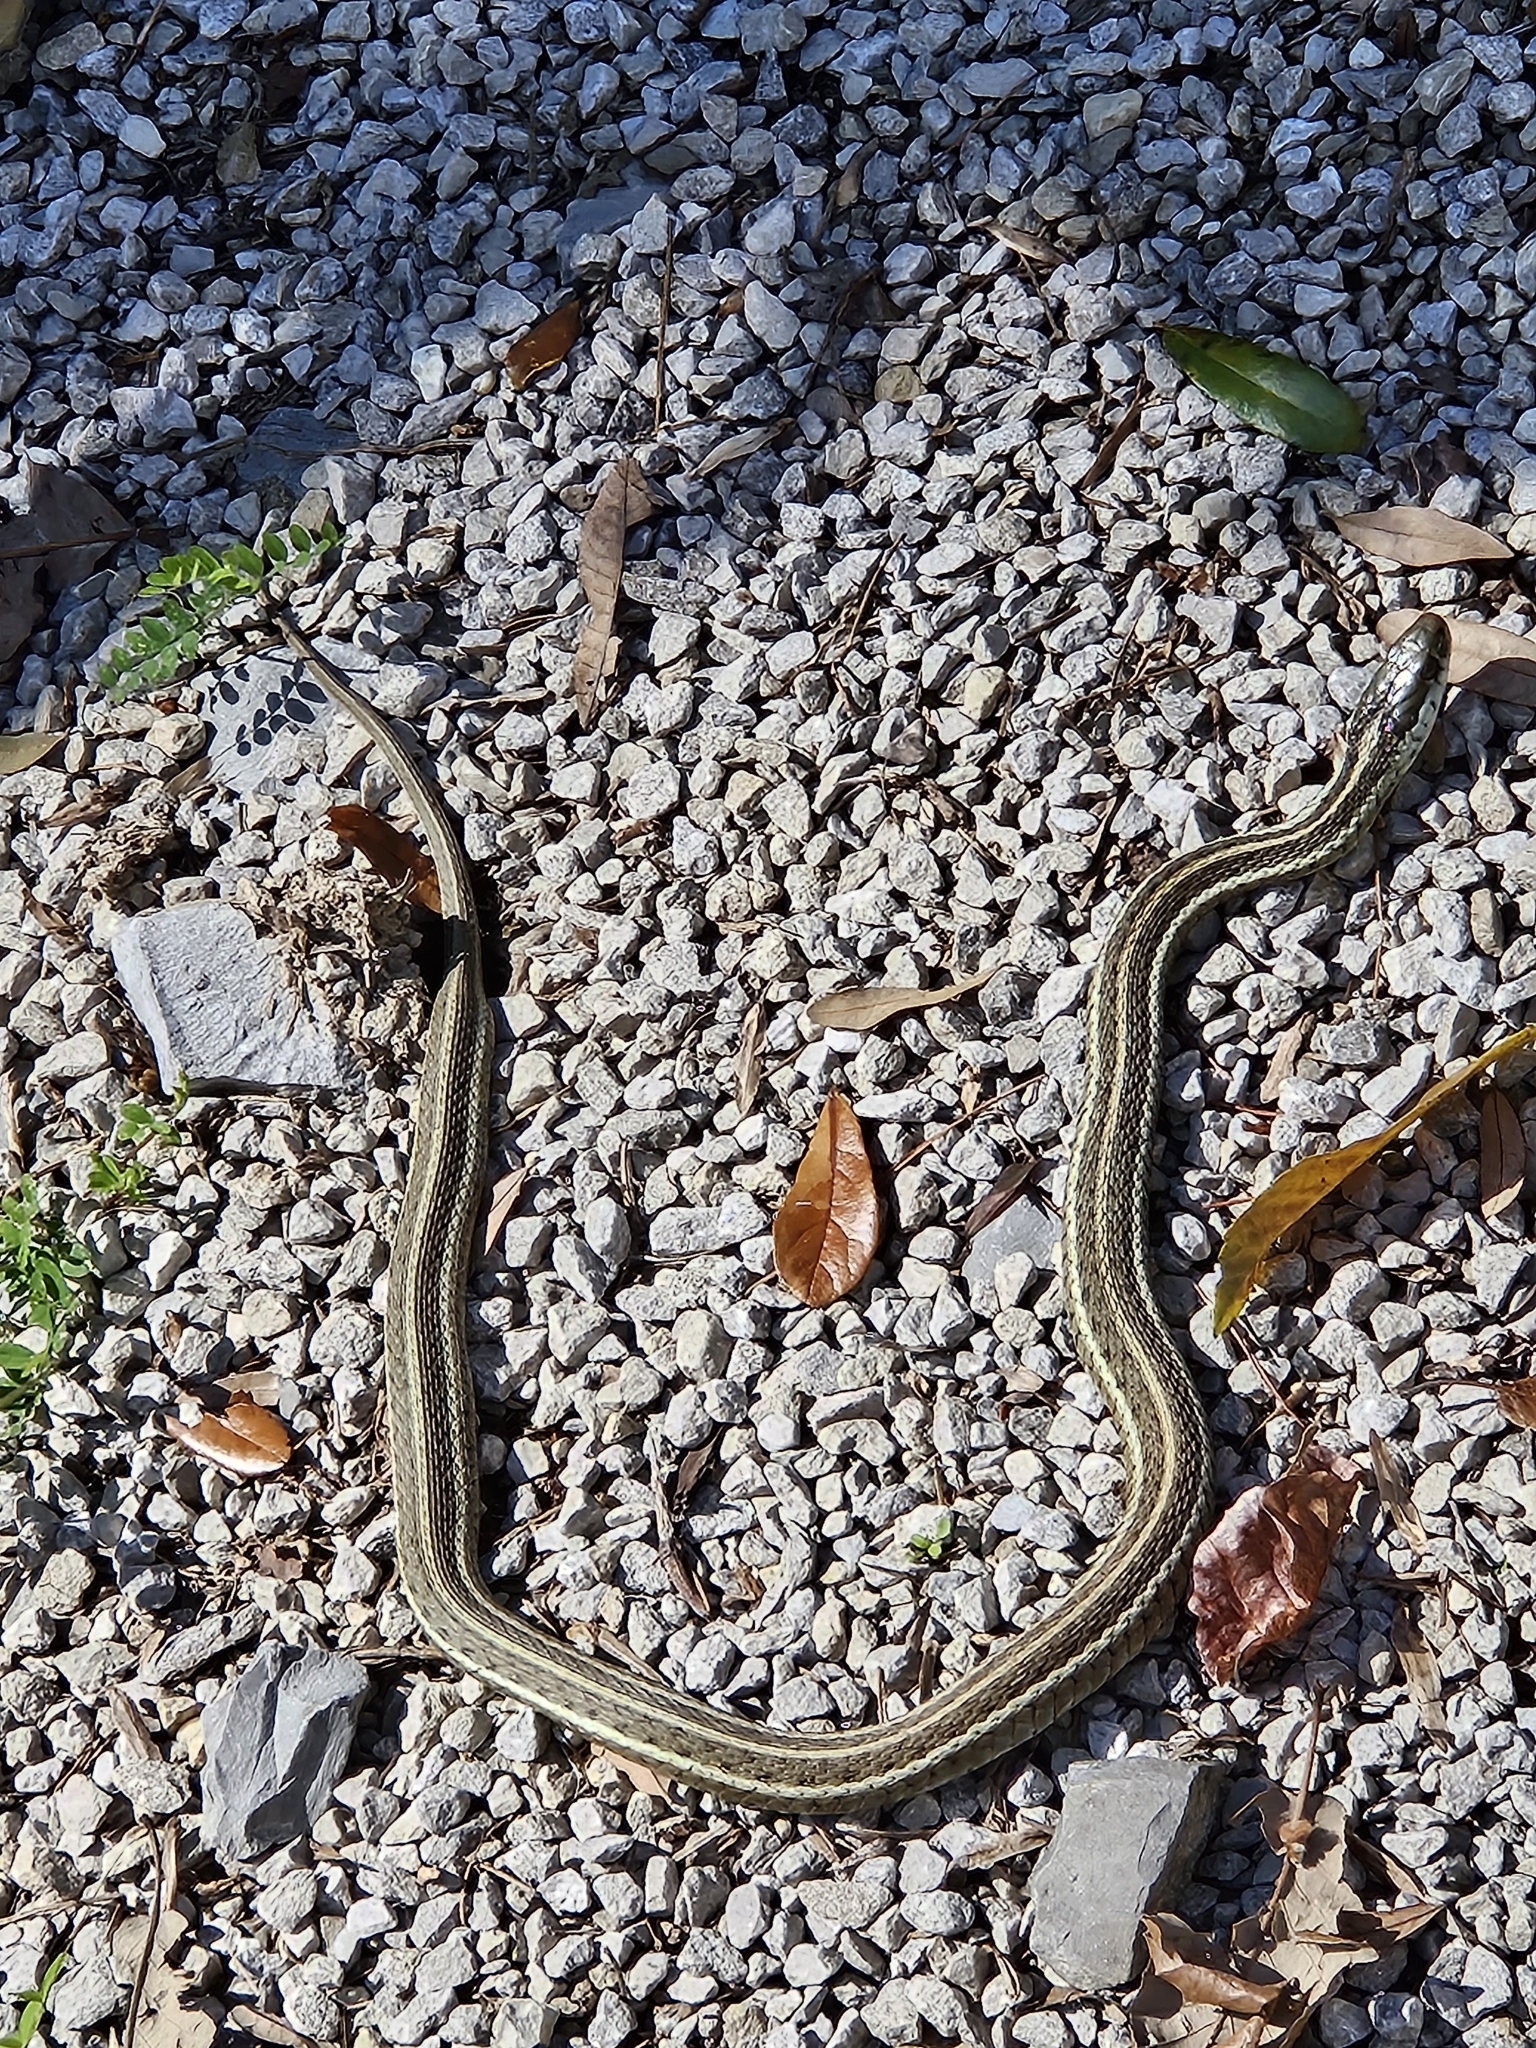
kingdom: Animalia
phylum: Chordata
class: Squamata
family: Colubridae
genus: Thamnophis
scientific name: Thamnophis sirtalis
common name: Common garter snake
